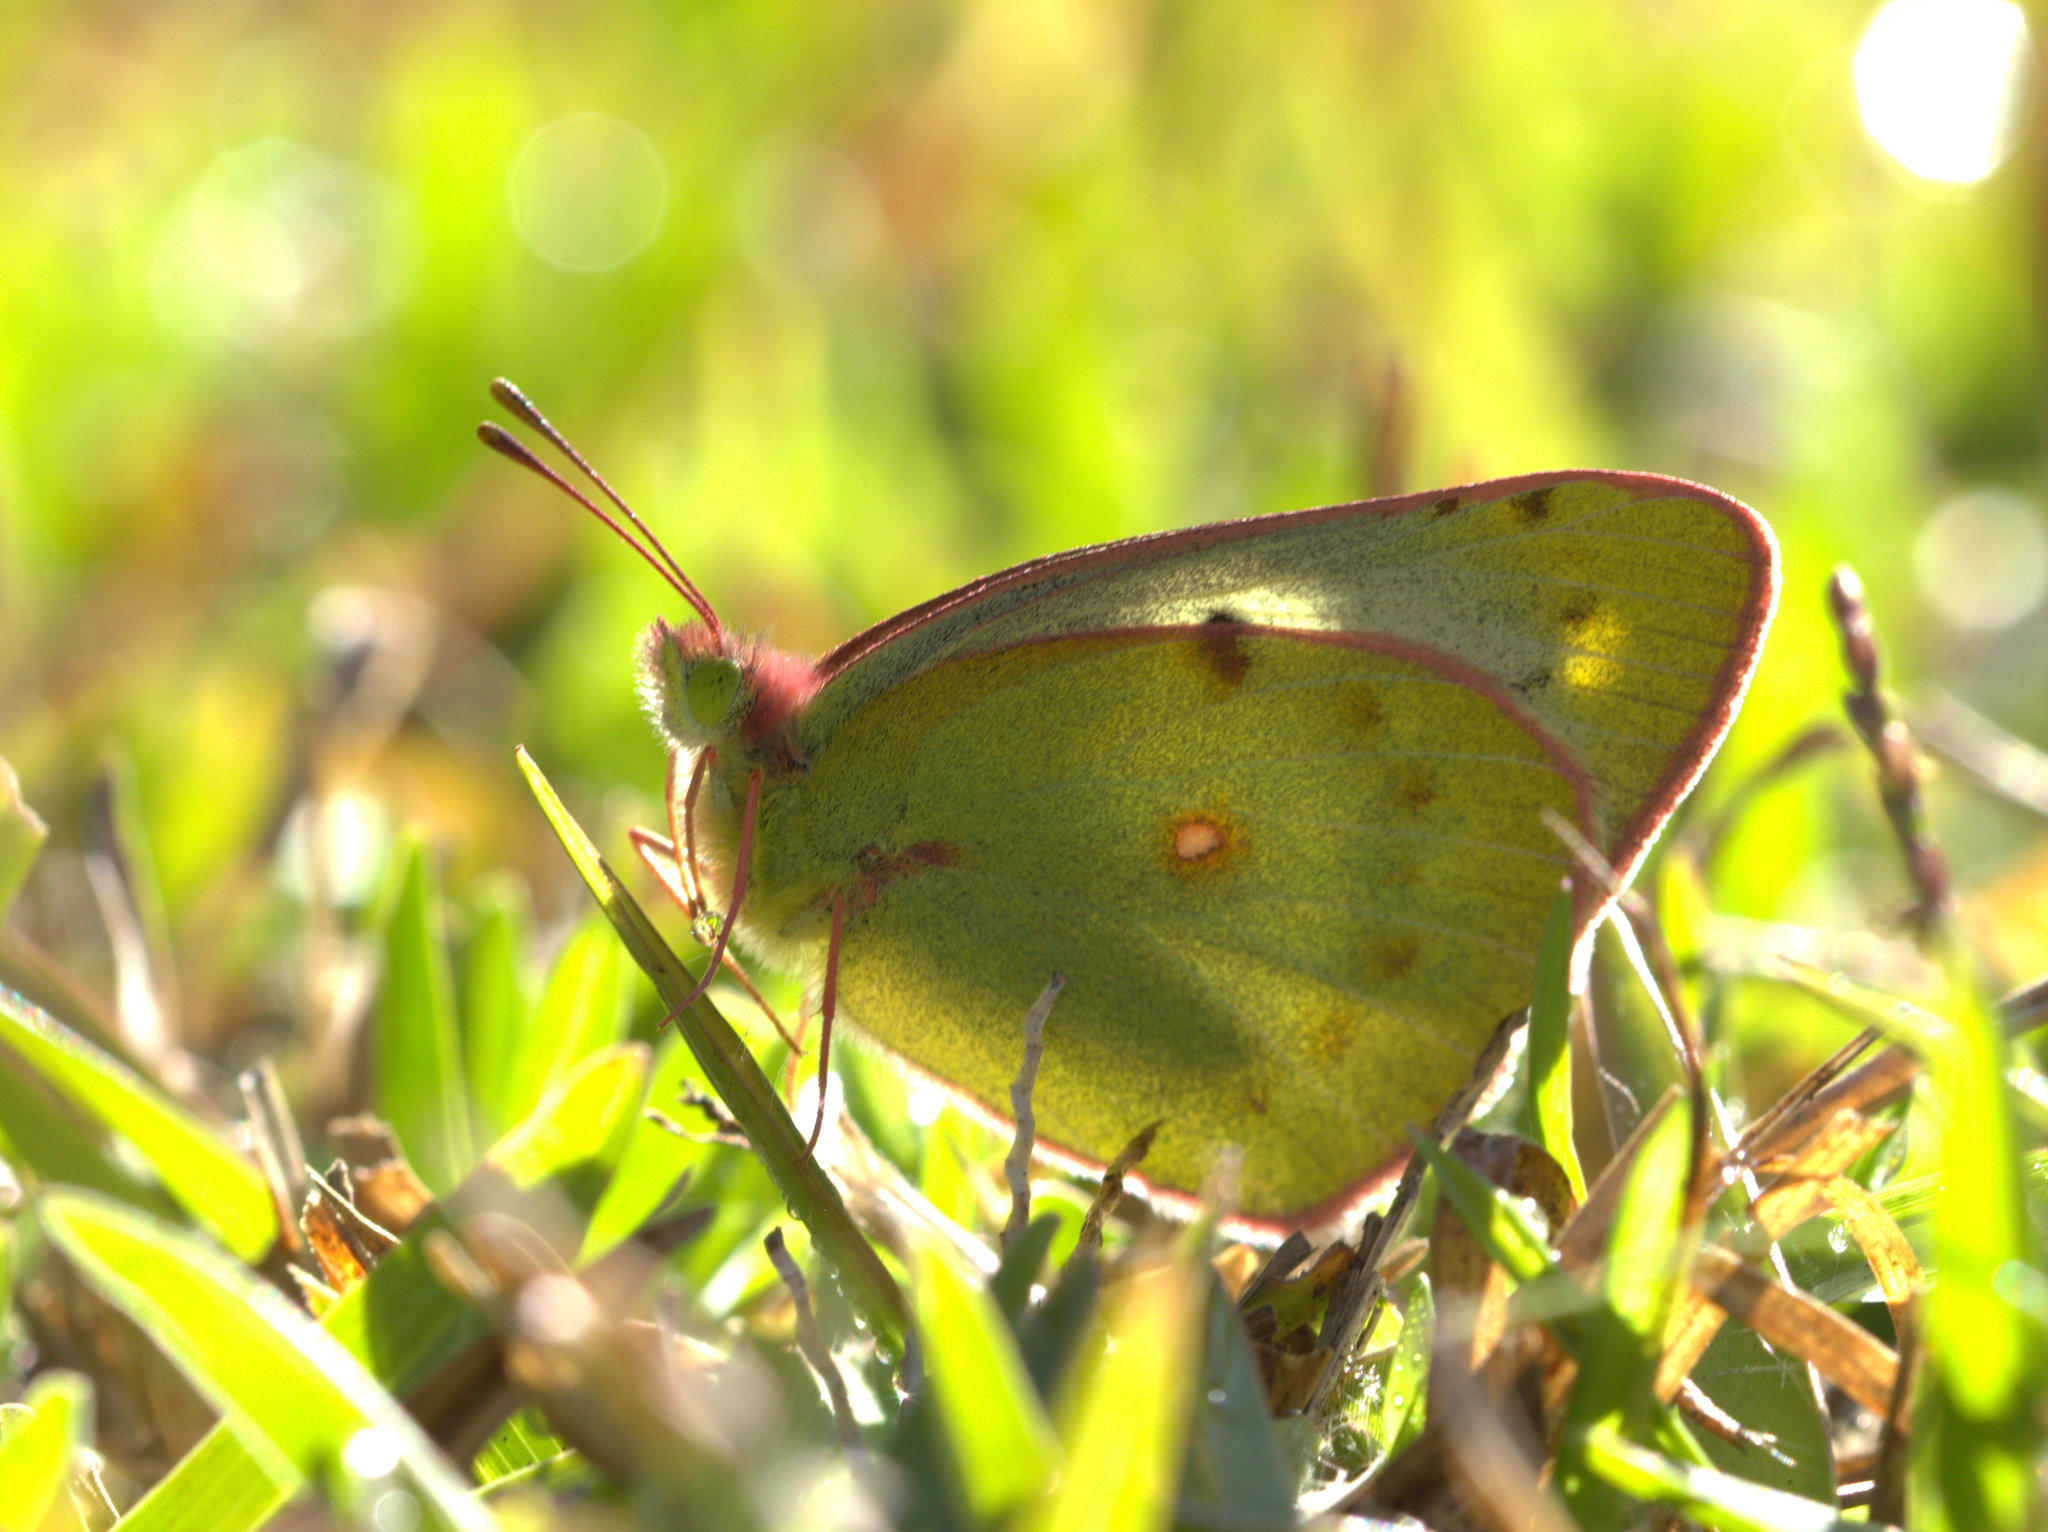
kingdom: Animalia
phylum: Arthropoda
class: Insecta
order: Lepidoptera
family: Pieridae
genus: Colias
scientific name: Colias nilagiriensis
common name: Nilgiri clouded yellow
